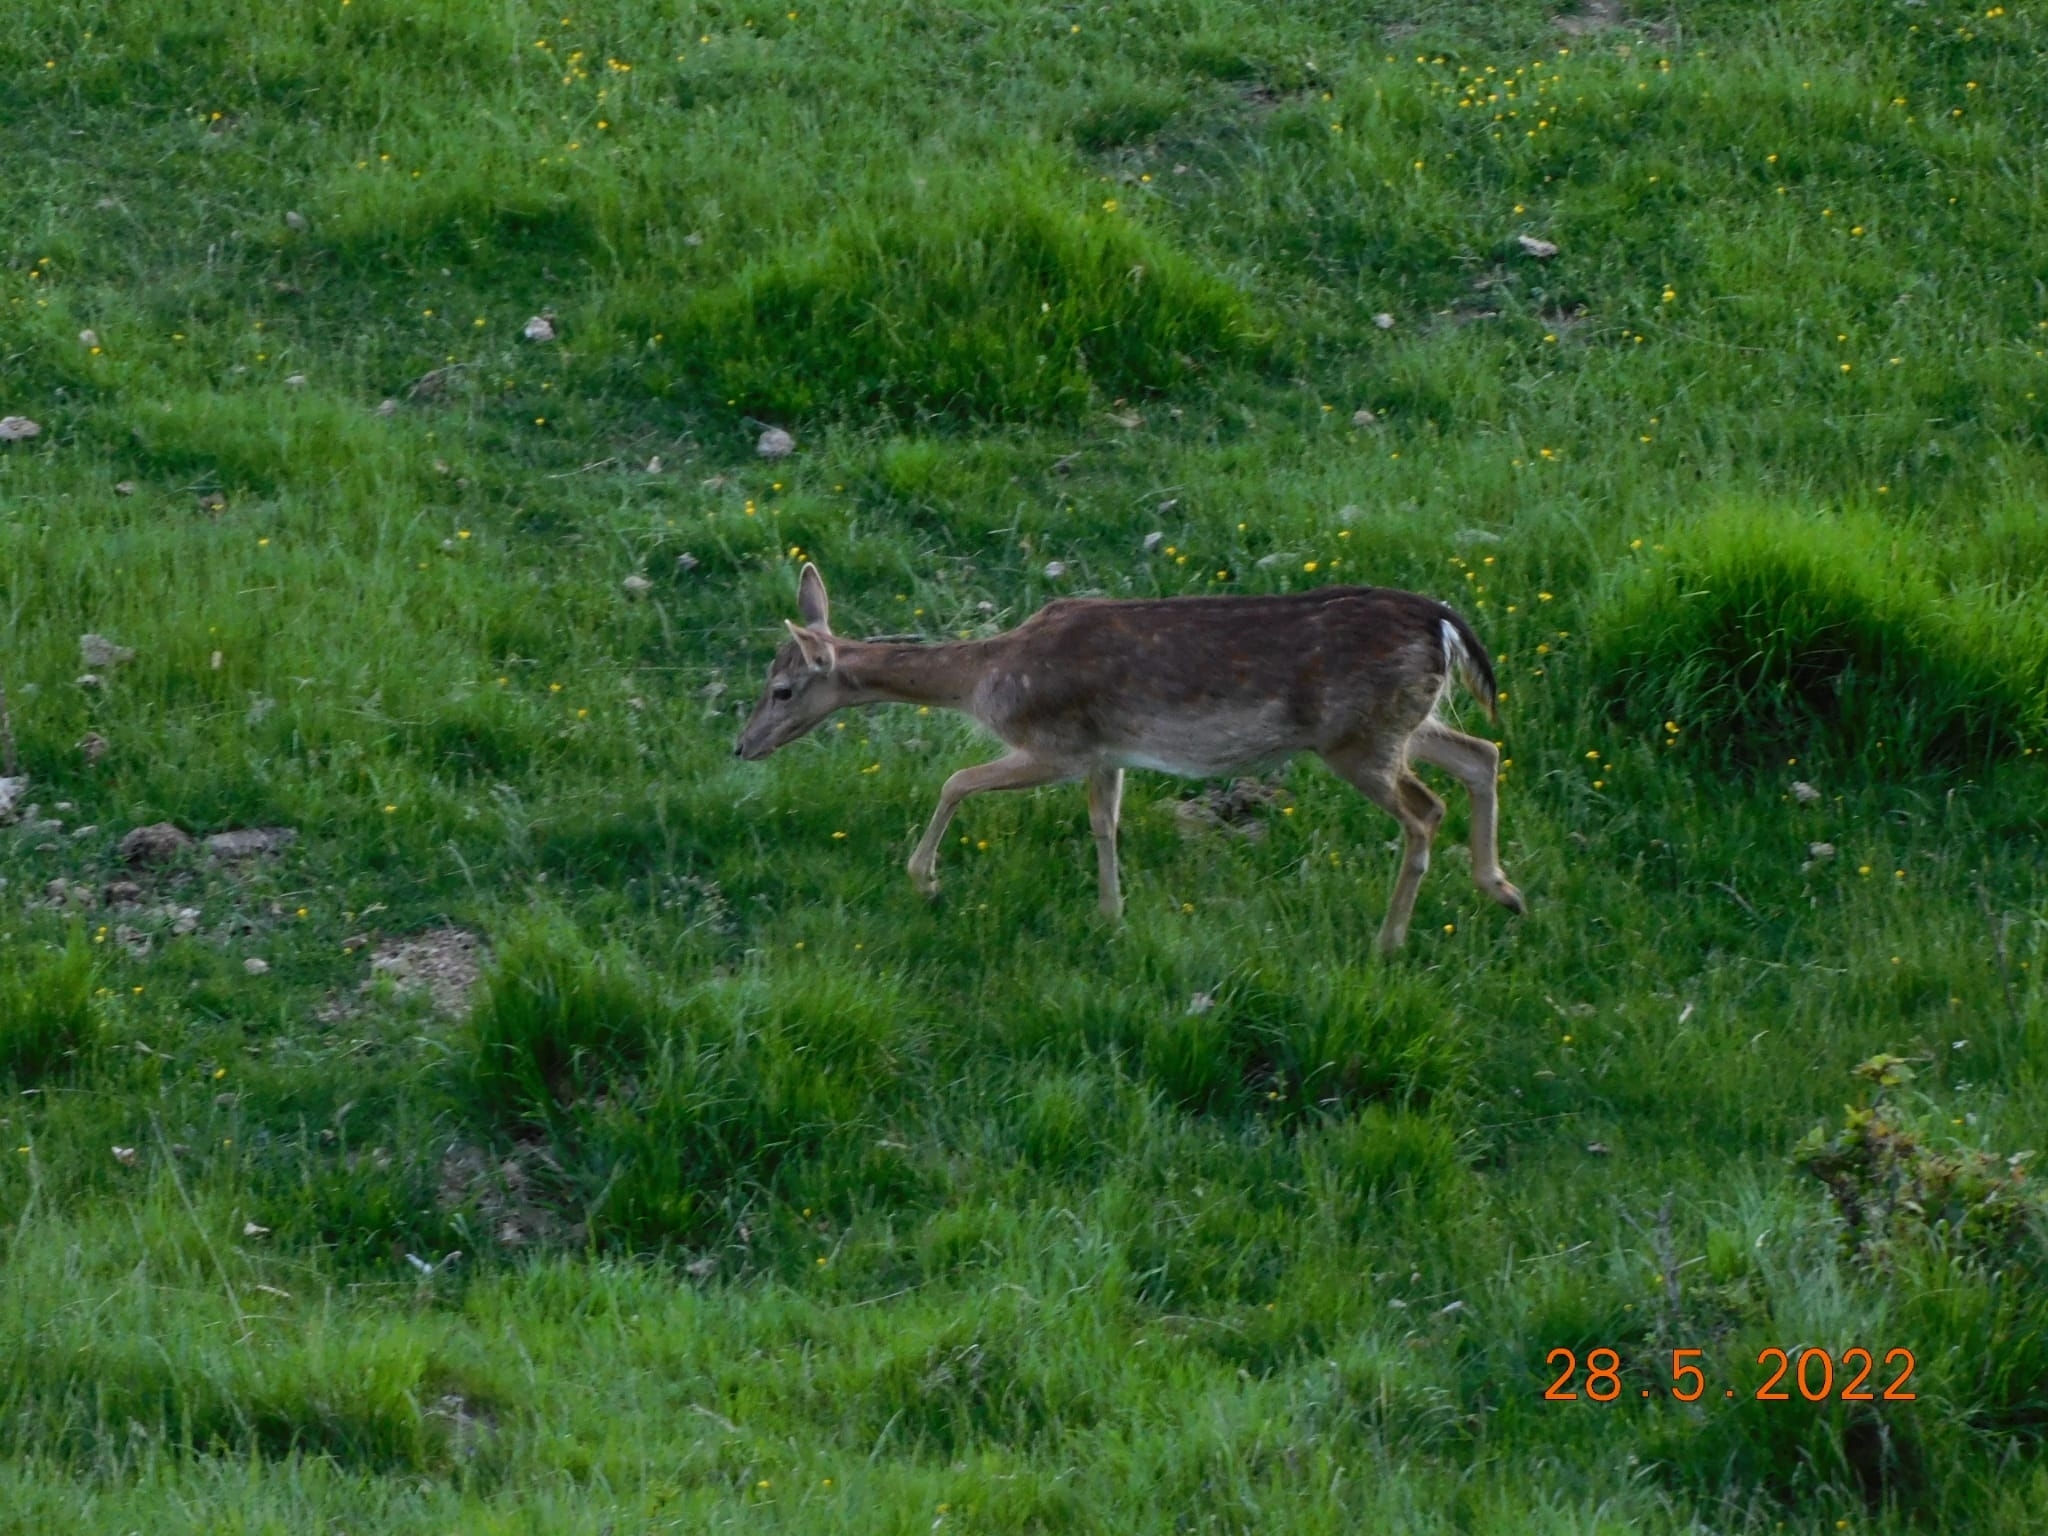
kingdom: Animalia
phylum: Chordata
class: Mammalia
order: Artiodactyla
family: Cervidae
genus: Dama
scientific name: Dama dama
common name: Fallow deer
